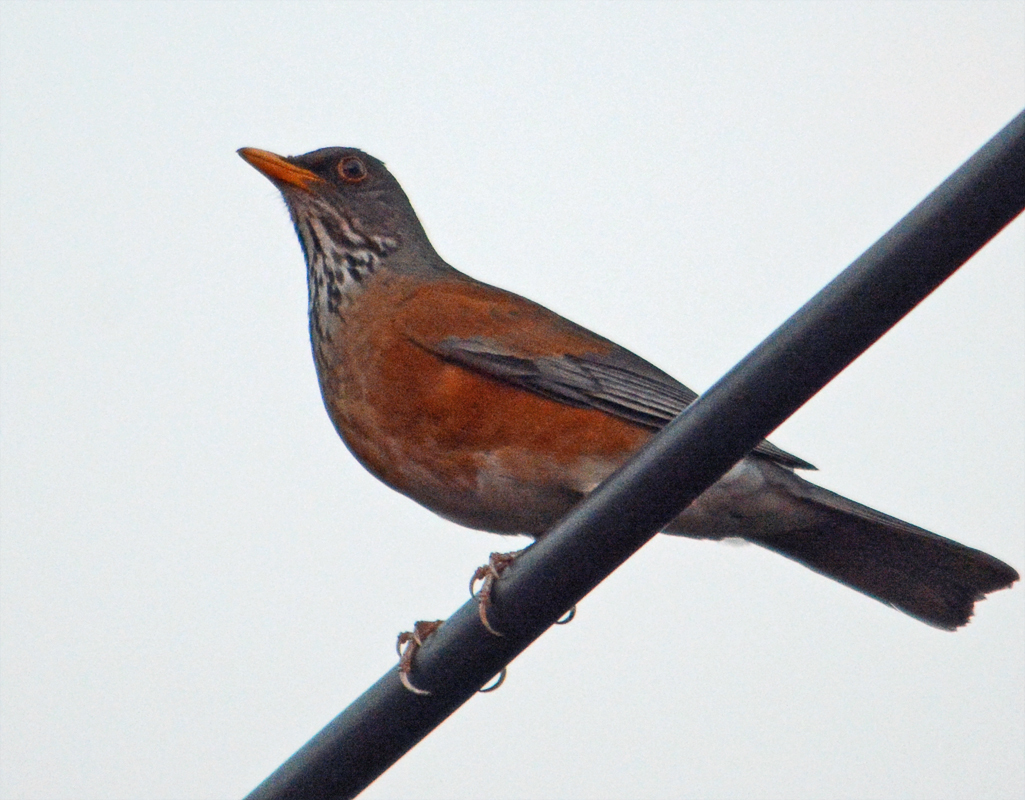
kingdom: Animalia
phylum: Chordata
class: Aves
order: Passeriformes
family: Turdidae
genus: Turdus
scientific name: Turdus rufopalliatus
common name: Rufous-backed robin
